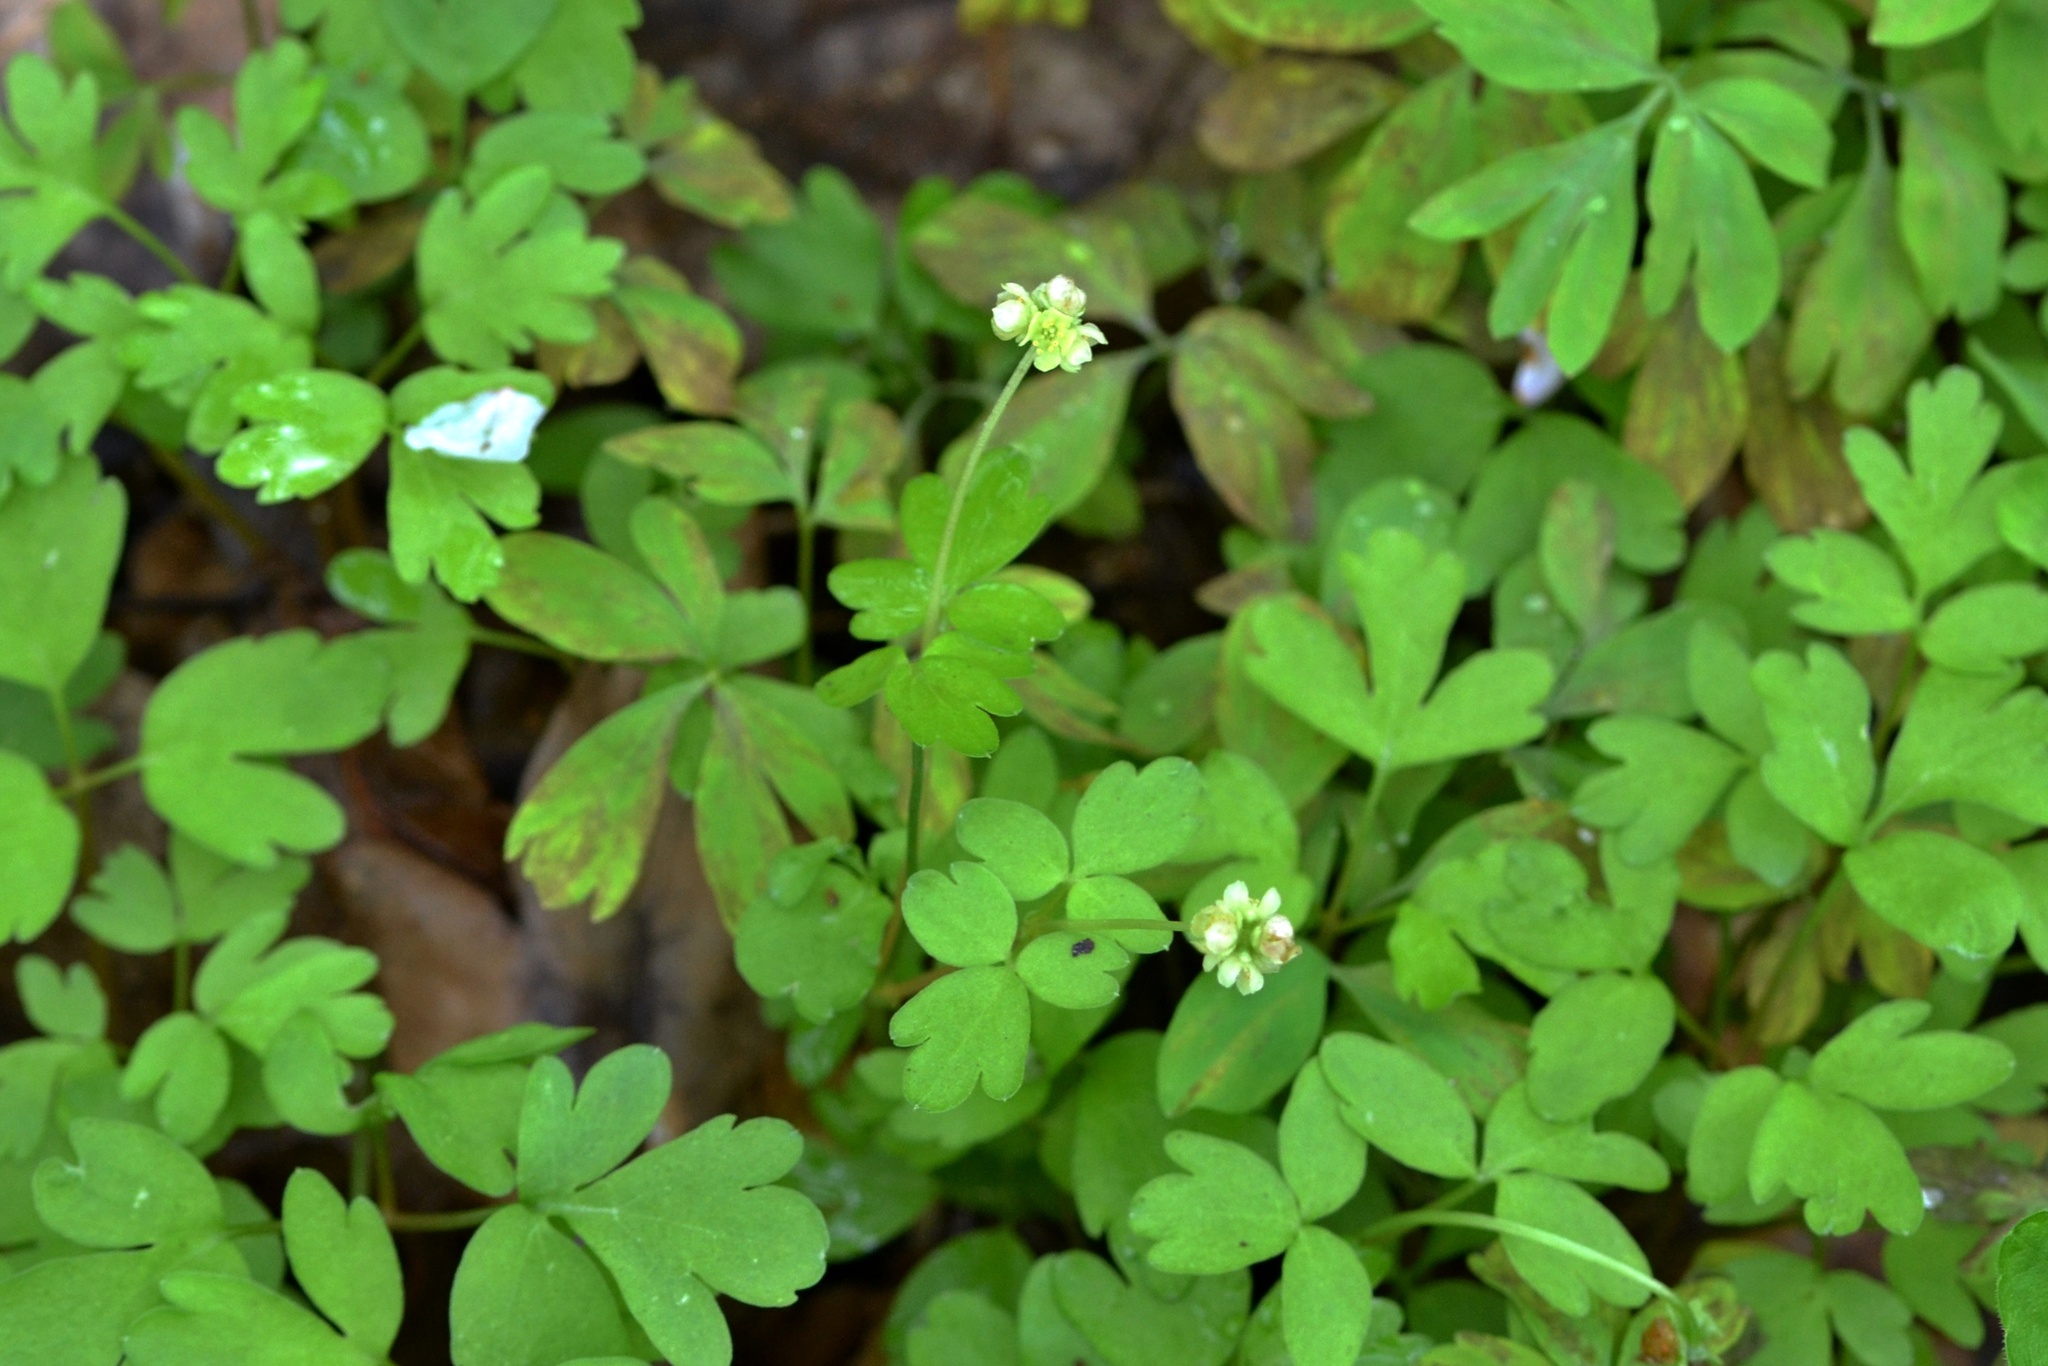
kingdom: Plantae
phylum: Tracheophyta
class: Magnoliopsida
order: Dipsacales
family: Viburnaceae
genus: Adoxa
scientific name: Adoxa moschatellina
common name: Moschatel
